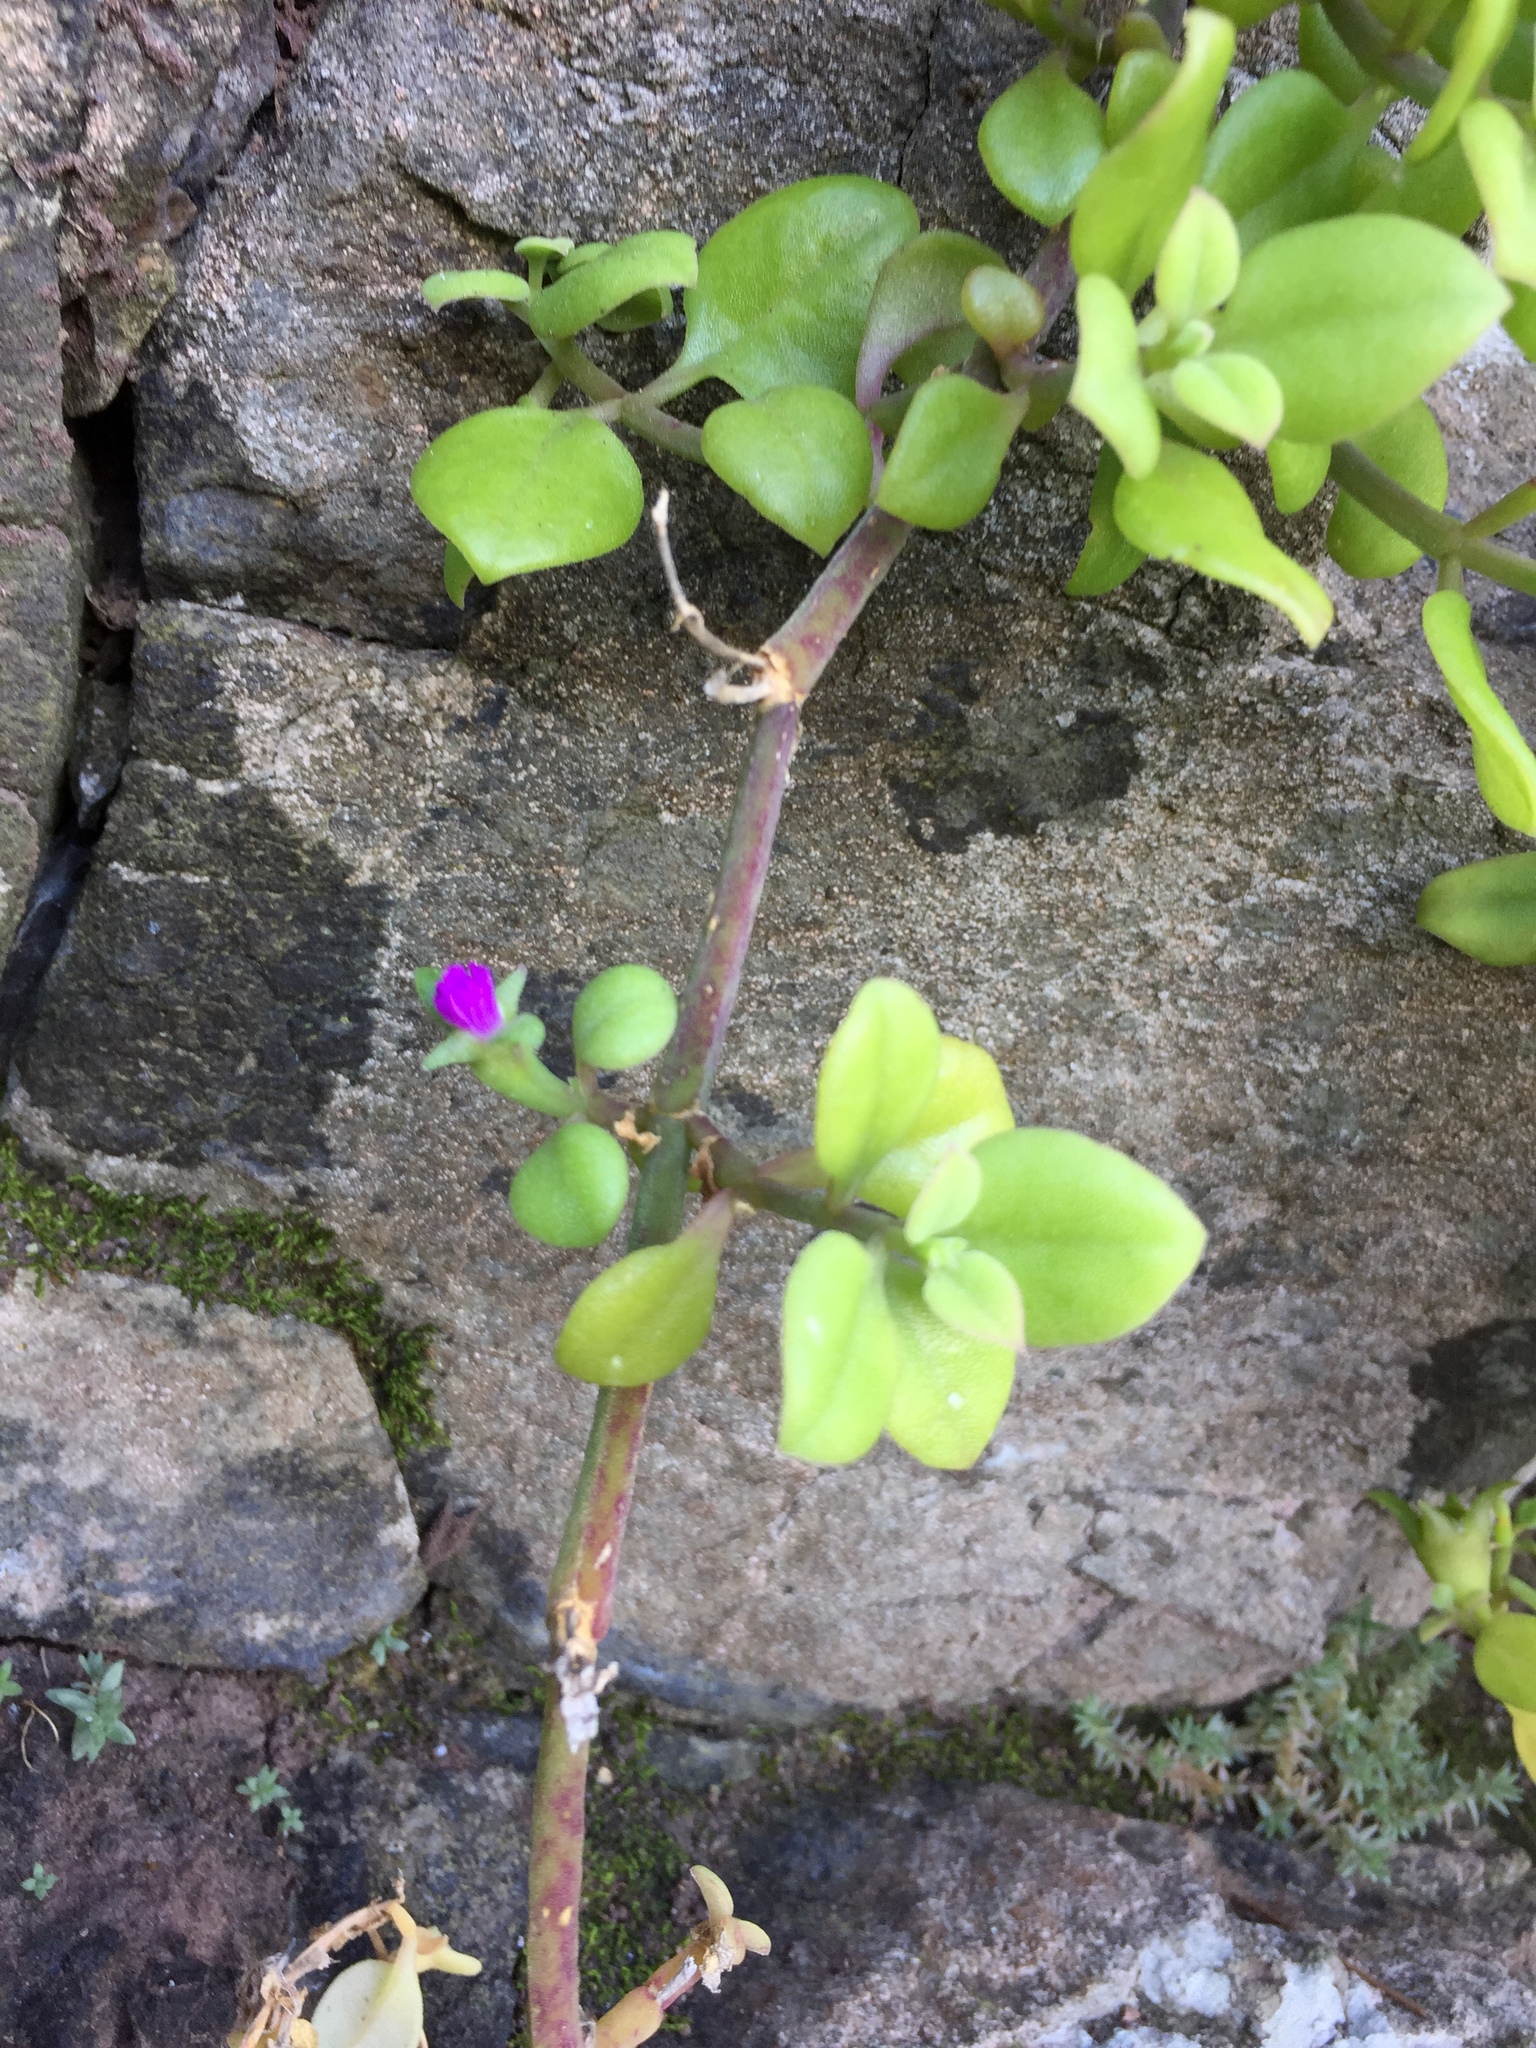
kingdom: Plantae
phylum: Tracheophyta
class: Magnoliopsida
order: Caryophyllales
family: Aizoaceae
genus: Mesembryanthemum
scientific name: Mesembryanthemum cordifolium
